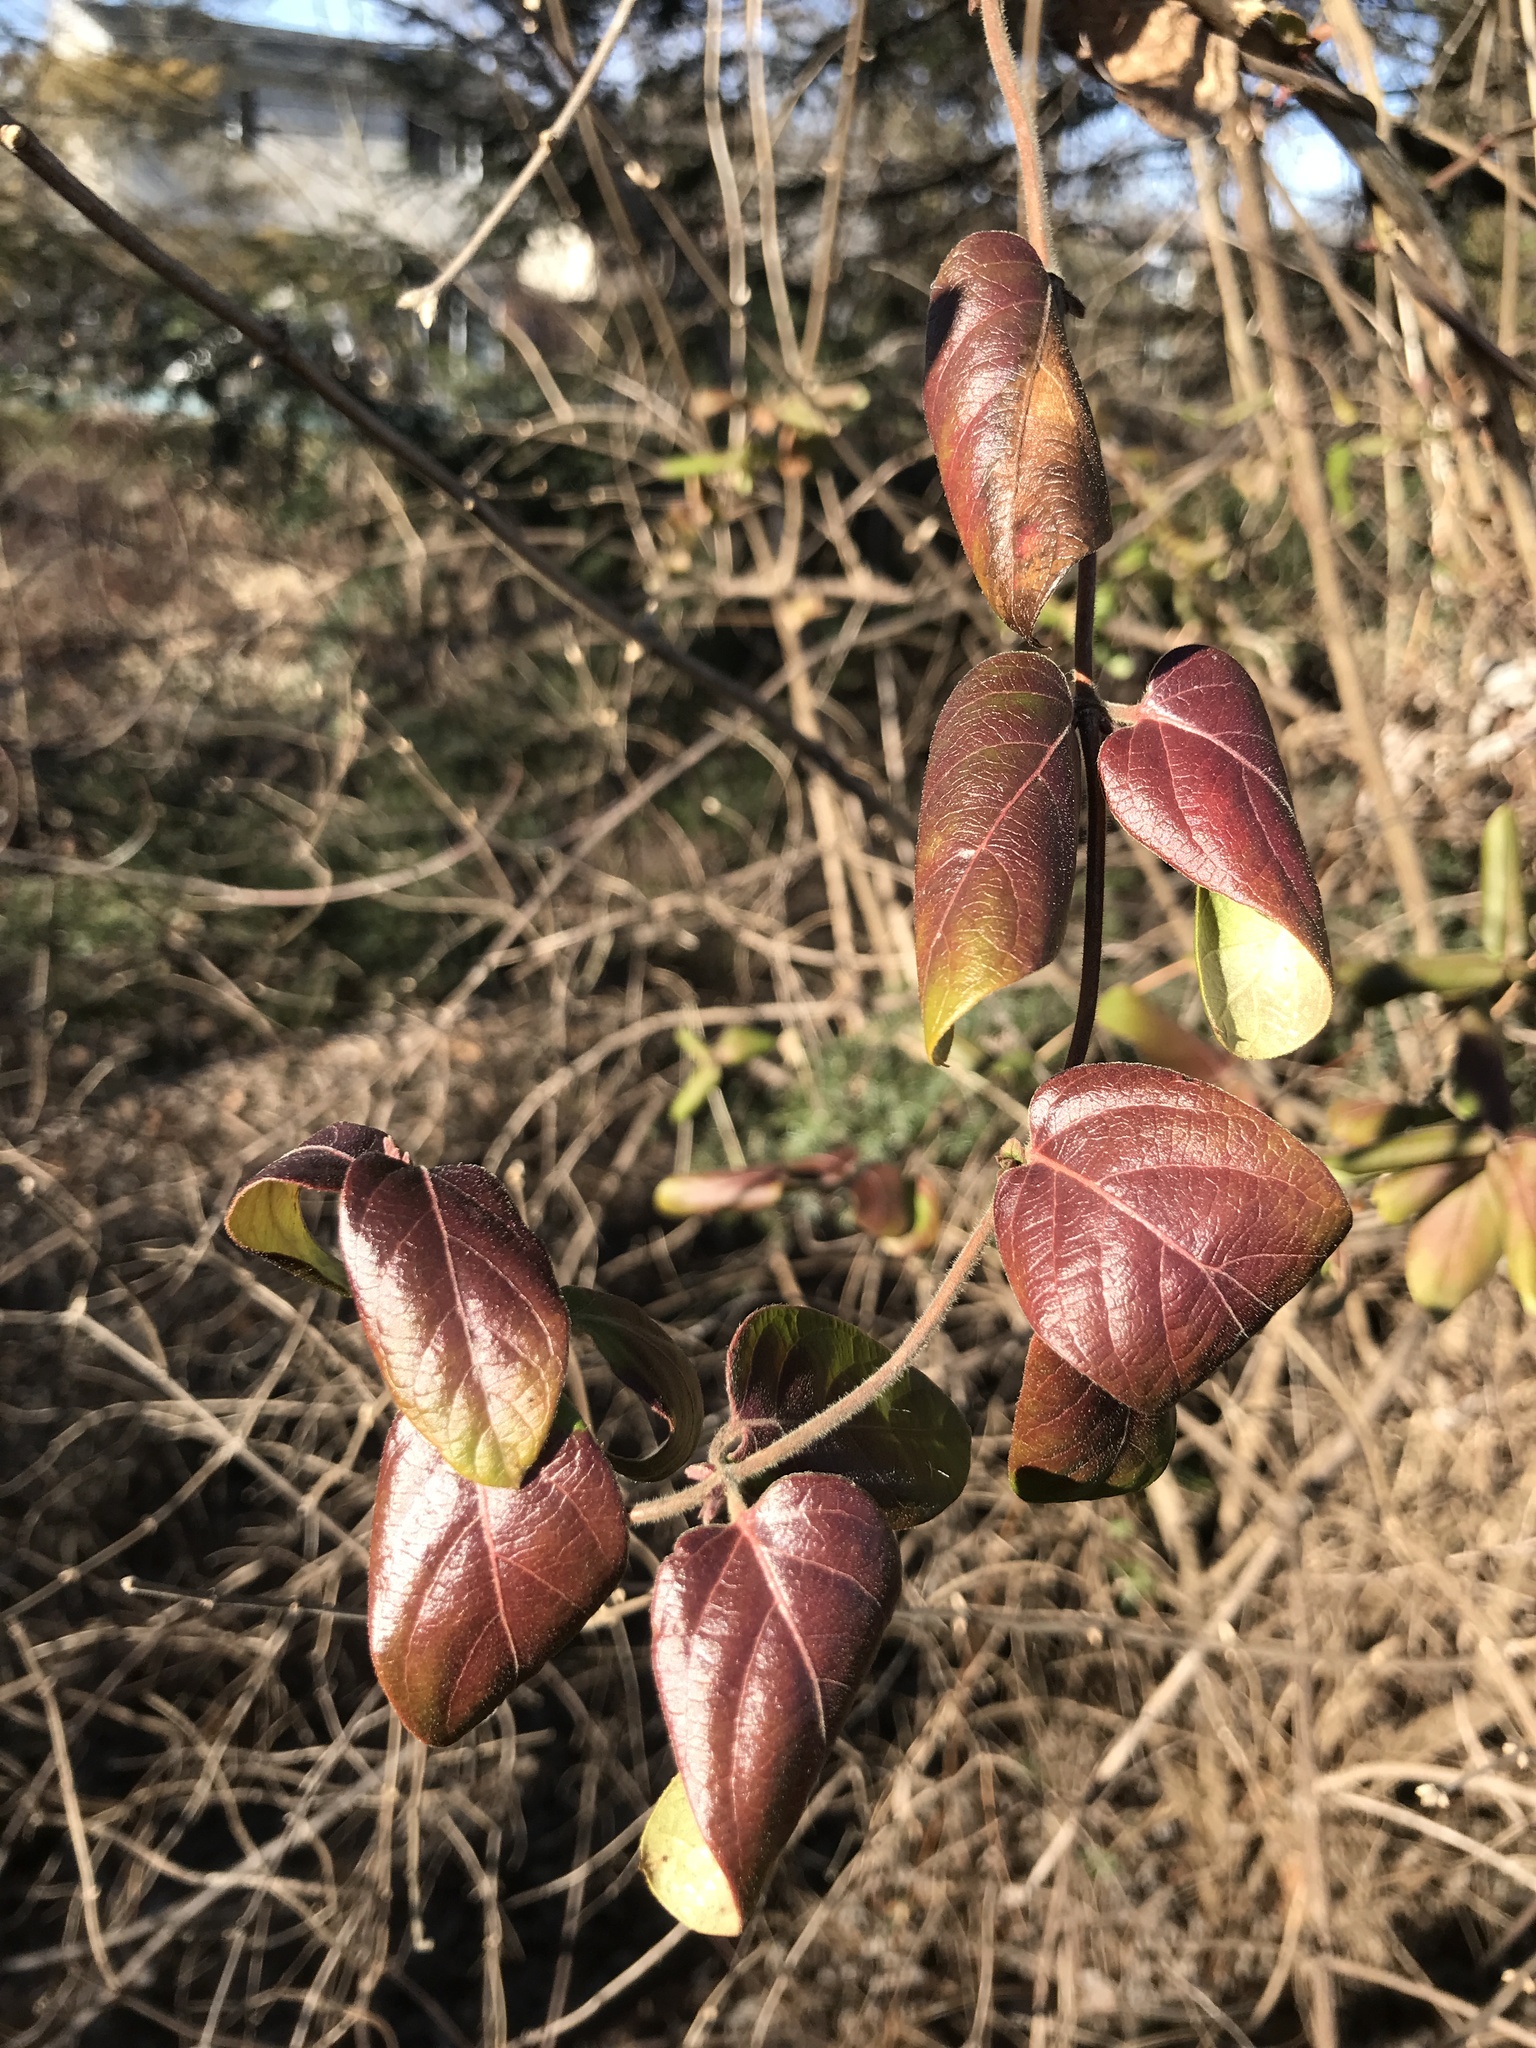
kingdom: Plantae
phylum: Tracheophyta
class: Magnoliopsida
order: Dipsacales
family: Caprifoliaceae
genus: Lonicera
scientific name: Lonicera japonica
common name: Japanese honeysuckle
